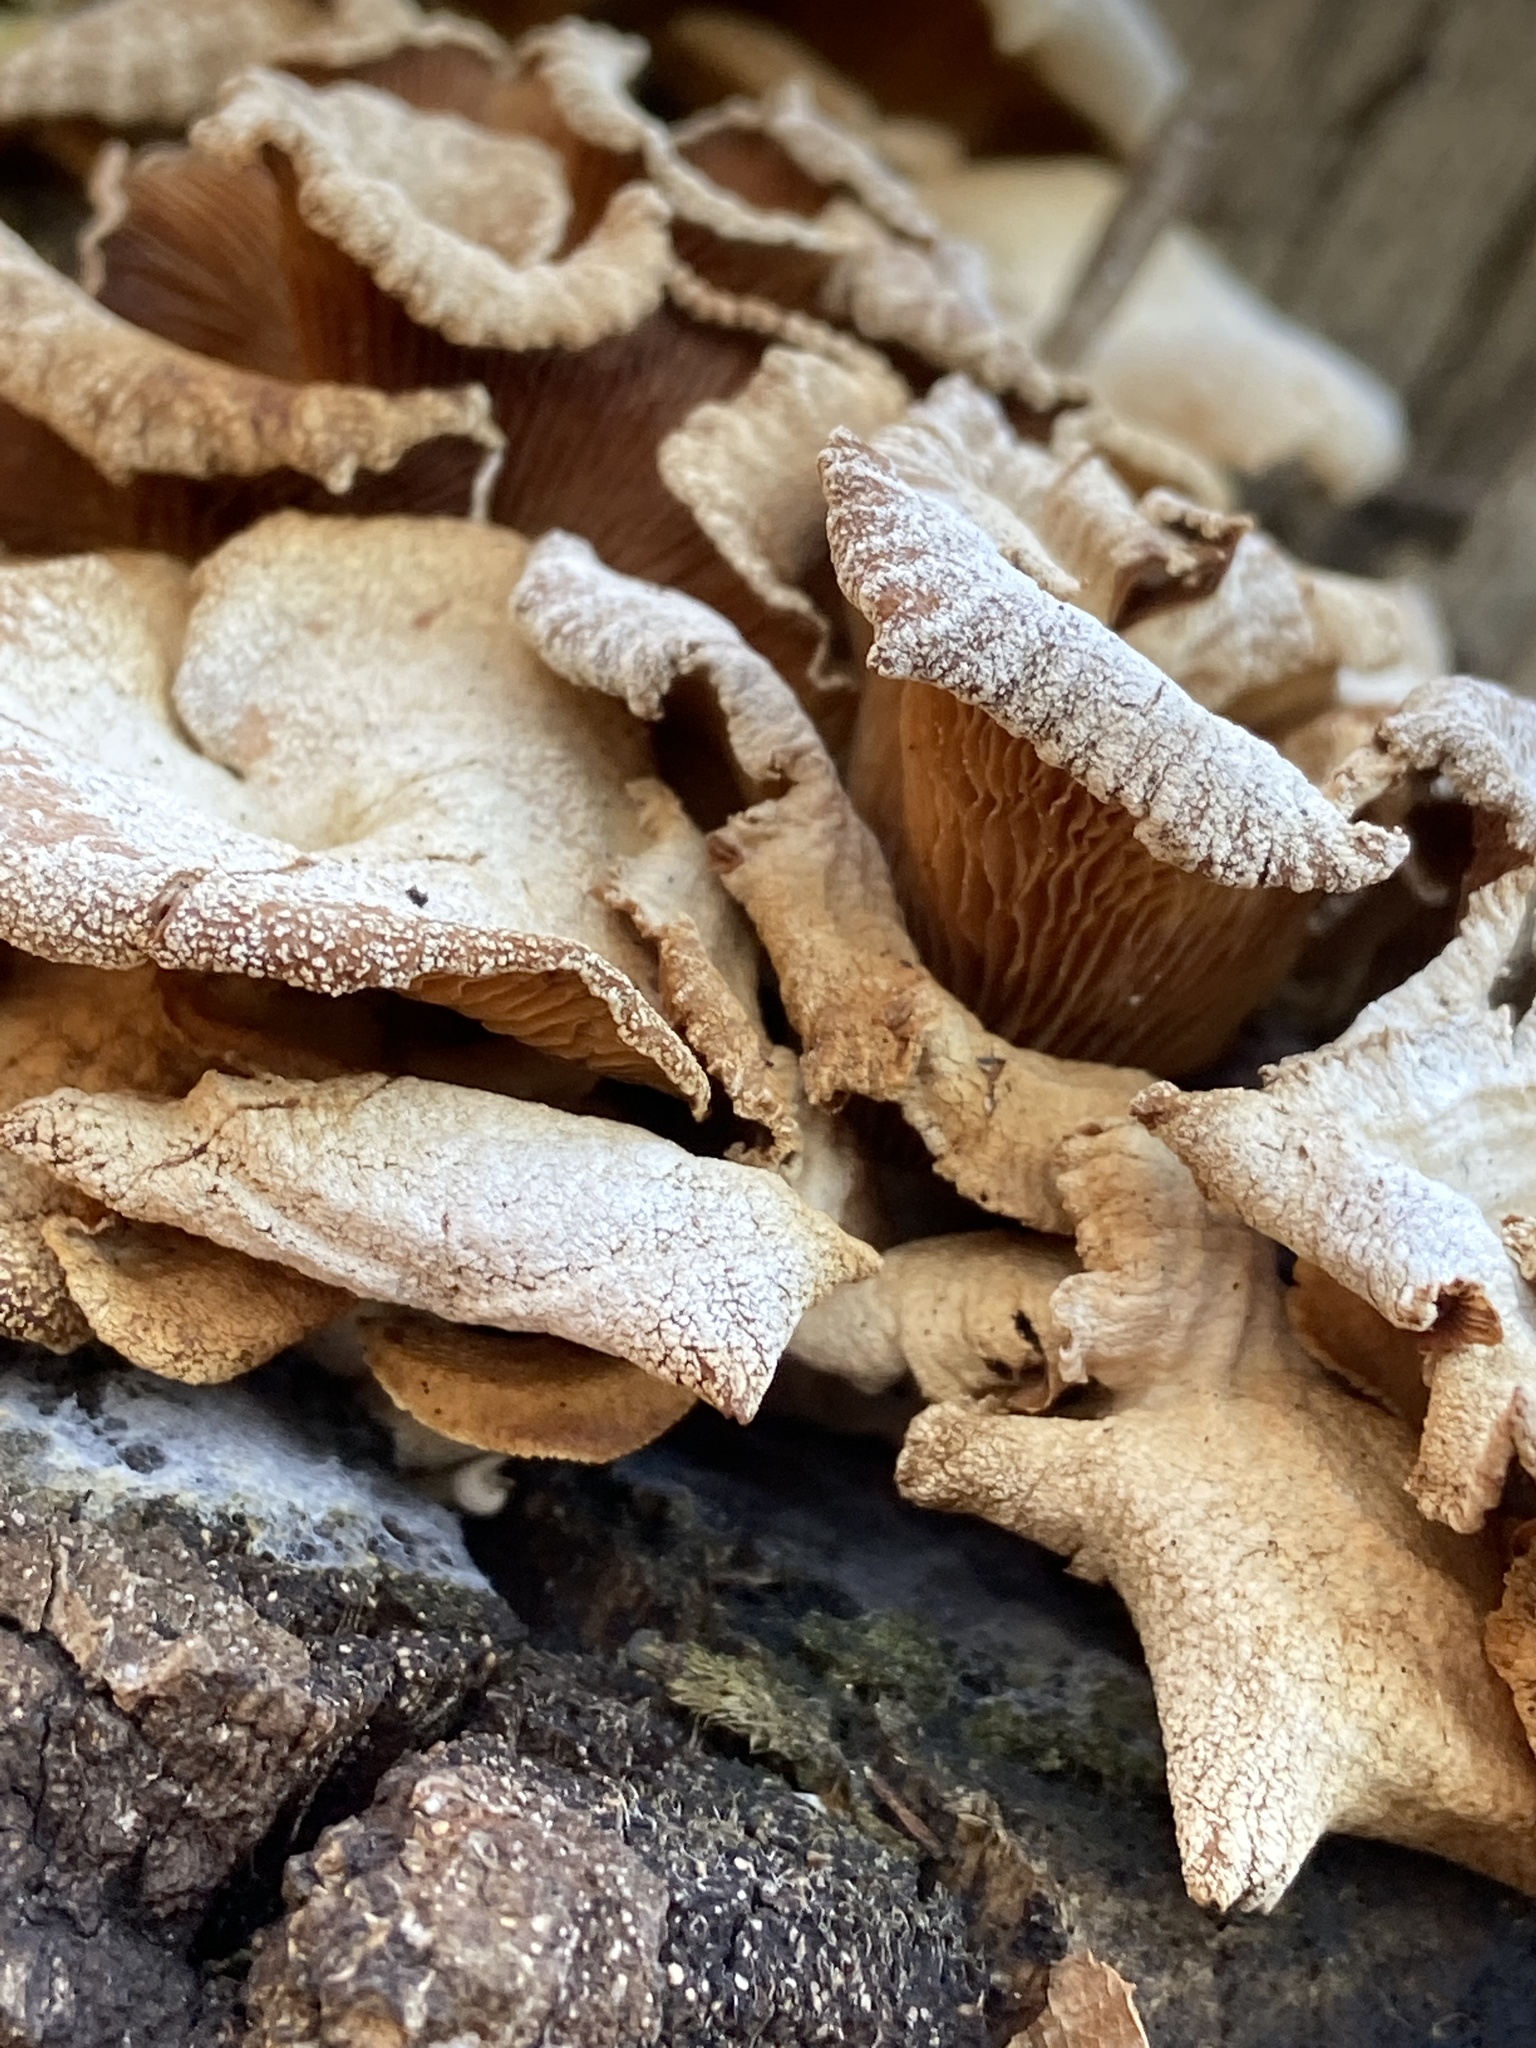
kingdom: Fungi
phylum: Basidiomycota
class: Agaricomycetes
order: Agaricales
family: Mycenaceae
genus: Panellus
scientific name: Panellus stipticus
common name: Bitter oysterling
